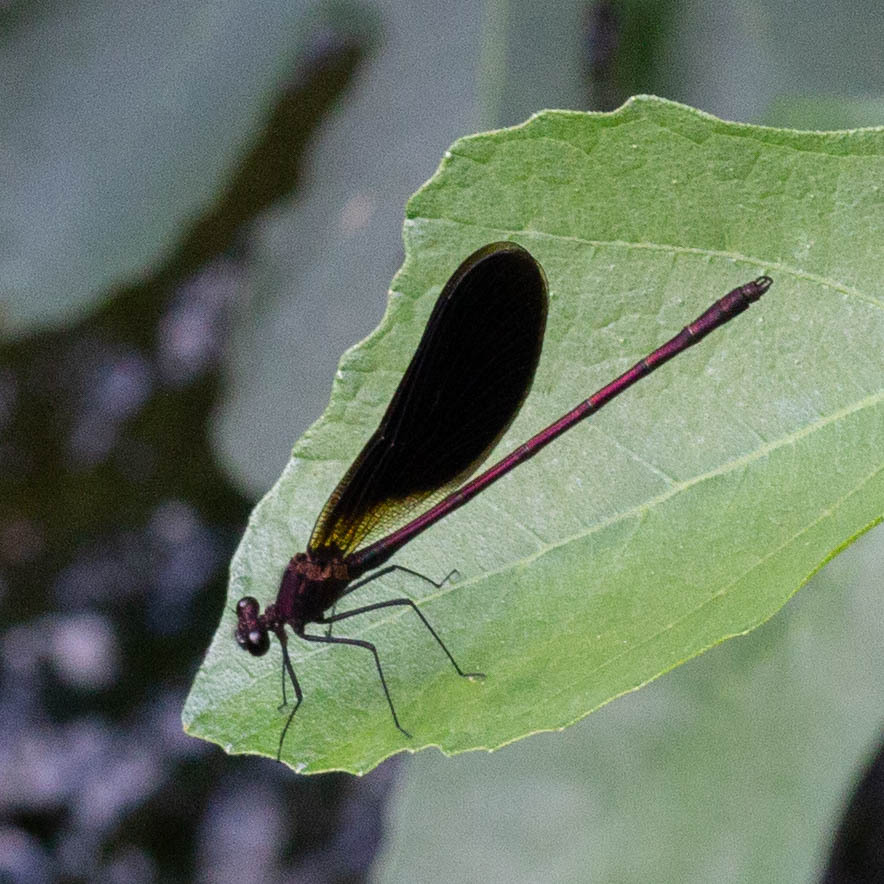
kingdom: Animalia
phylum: Arthropoda
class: Insecta
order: Odonata
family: Calopterygidae
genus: Calopteryx
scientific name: Calopteryx haemorrhoidalis
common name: Copper demoiselle
